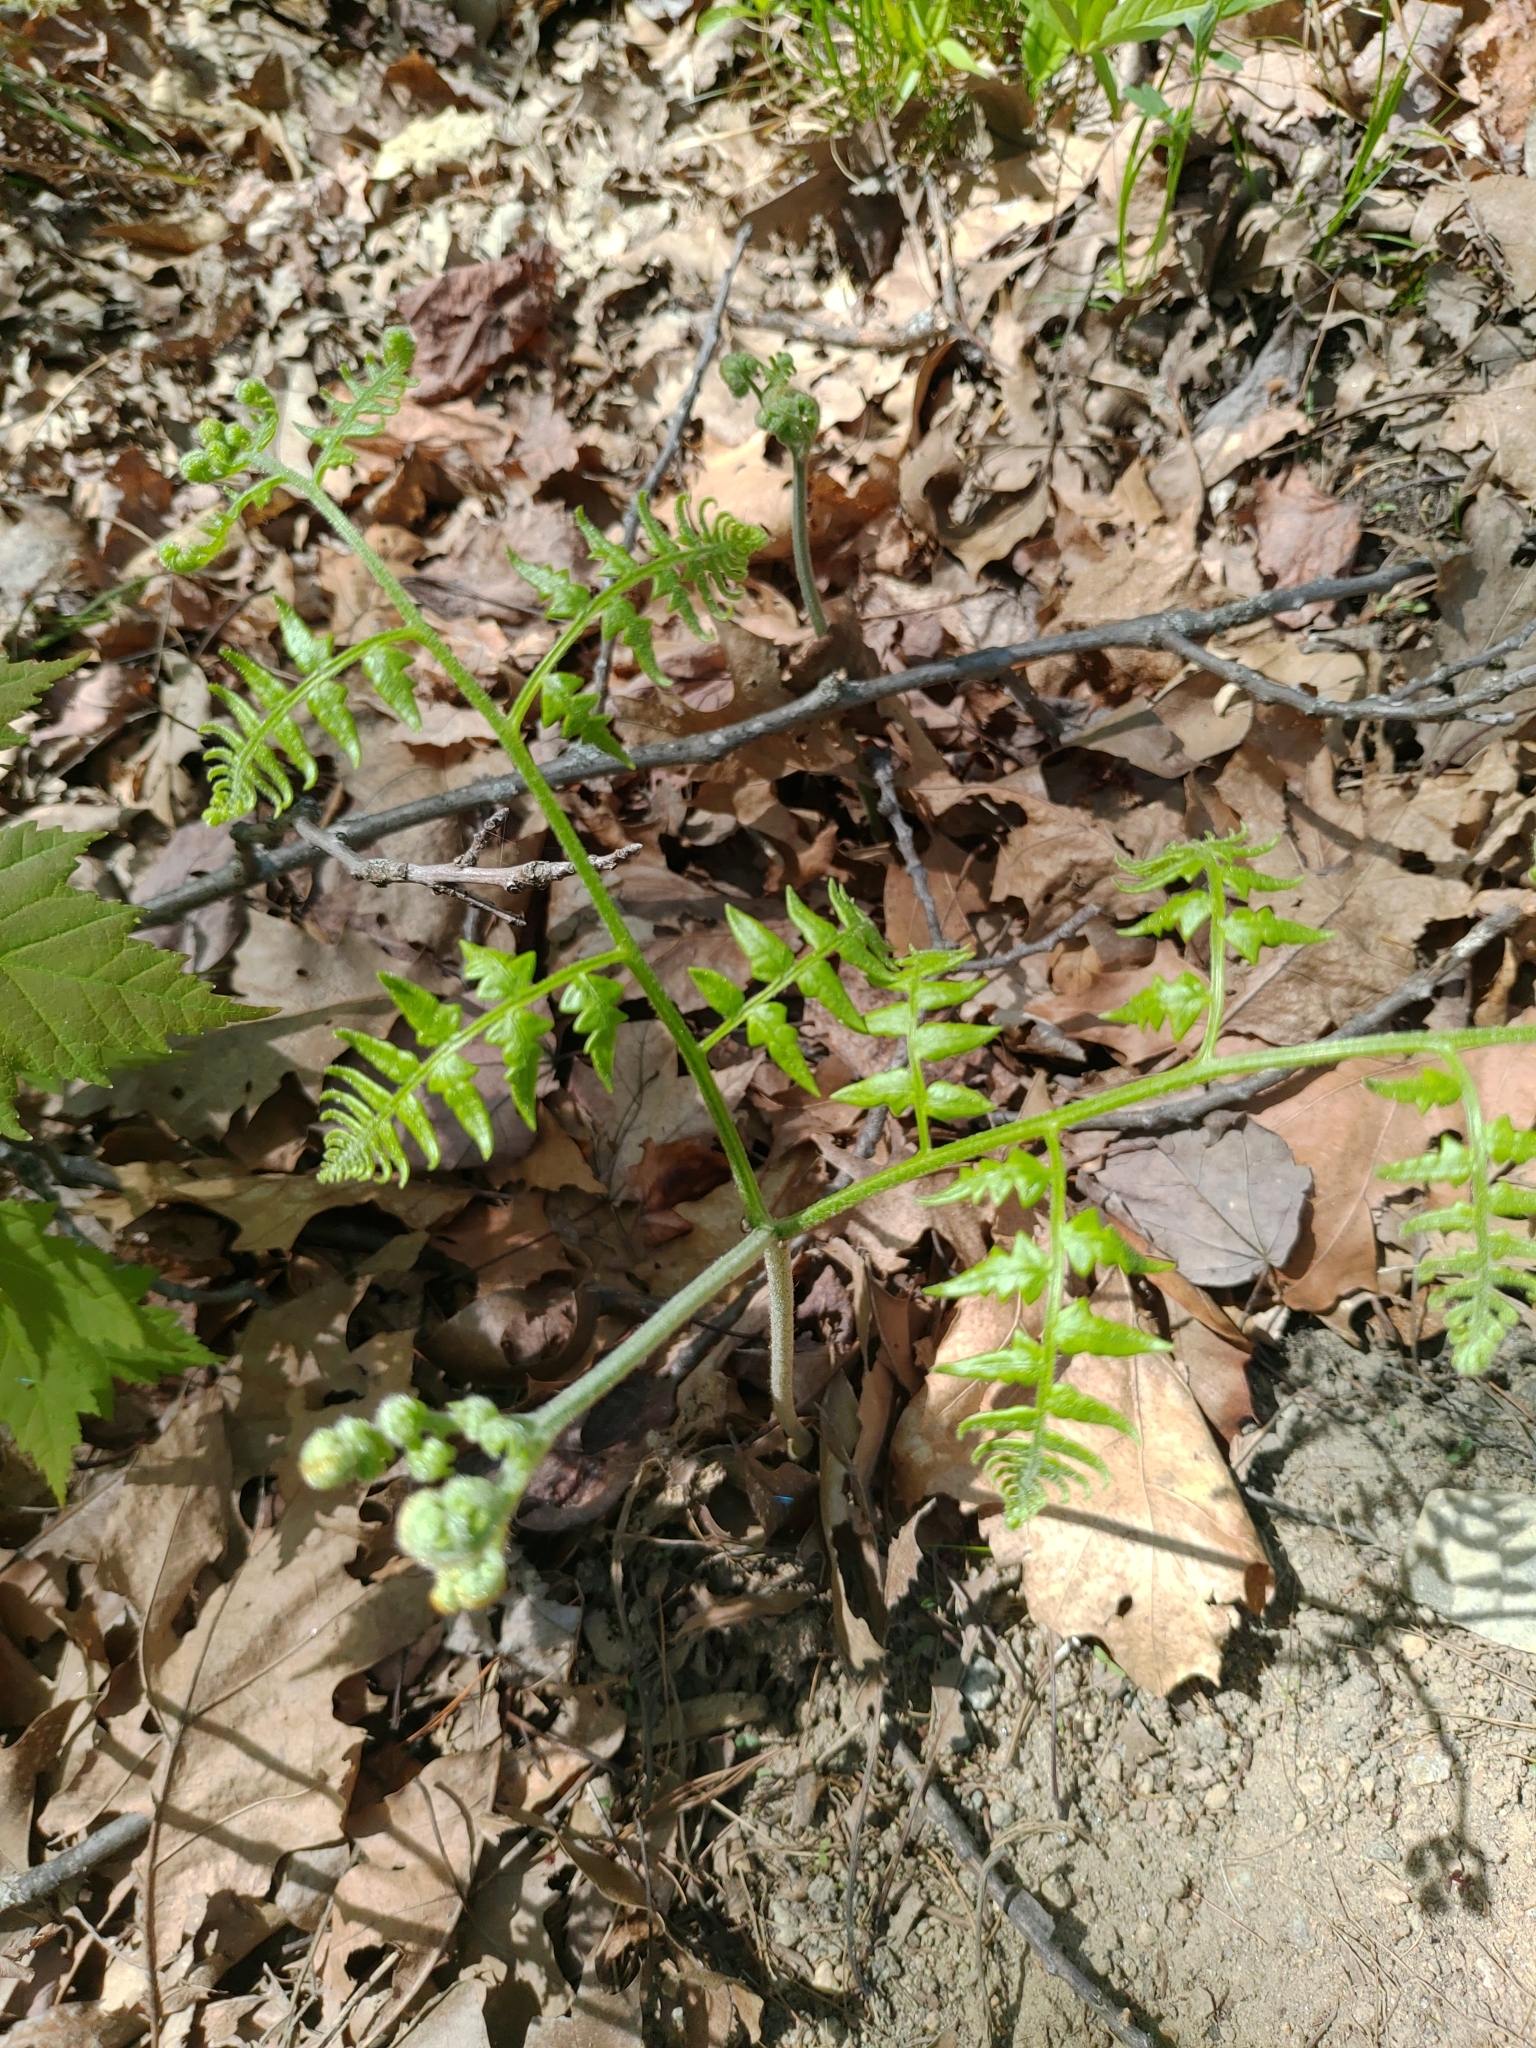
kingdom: Plantae
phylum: Tracheophyta
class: Polypodiopsida
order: Polypodiales
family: Dennstaedtiaceae
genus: Pteridium
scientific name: Pteridium aquilinum
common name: Bracken
